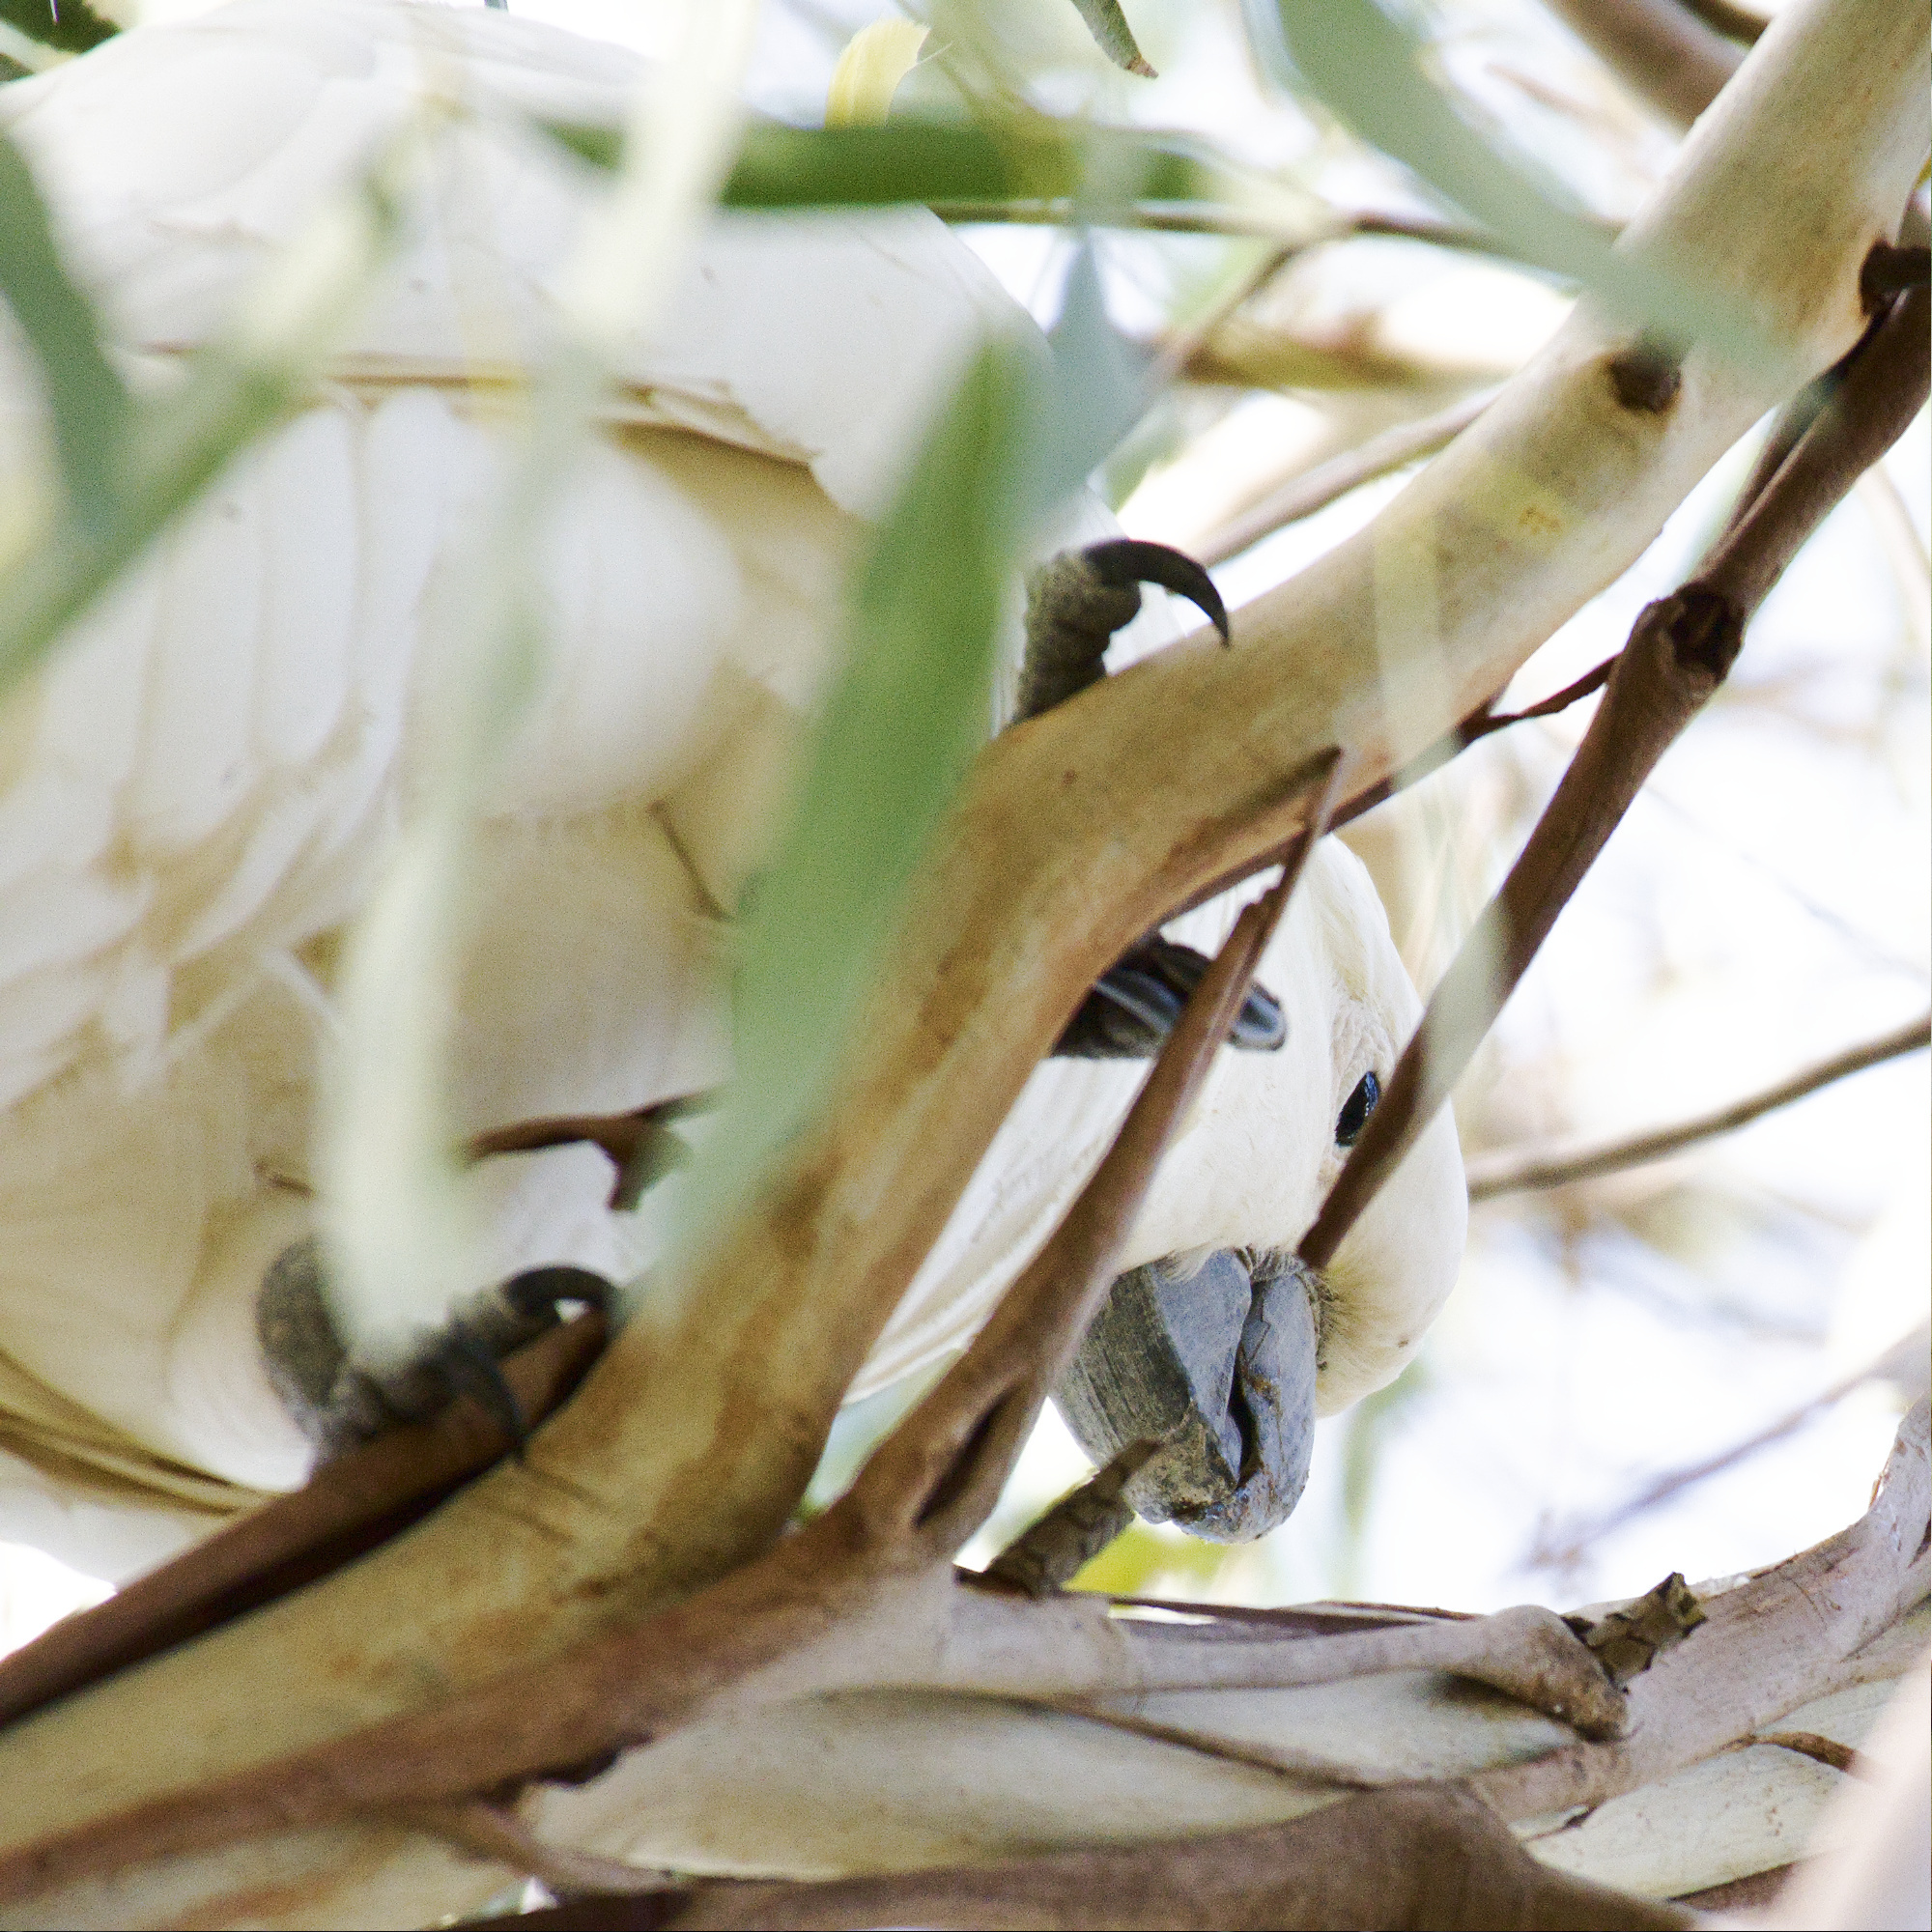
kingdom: Animalia
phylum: Chordata
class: Aves
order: Psittaciformes
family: Psittacidae
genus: Cacatua
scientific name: Cacatua galerita
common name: Sulphur-crested cockatoo
